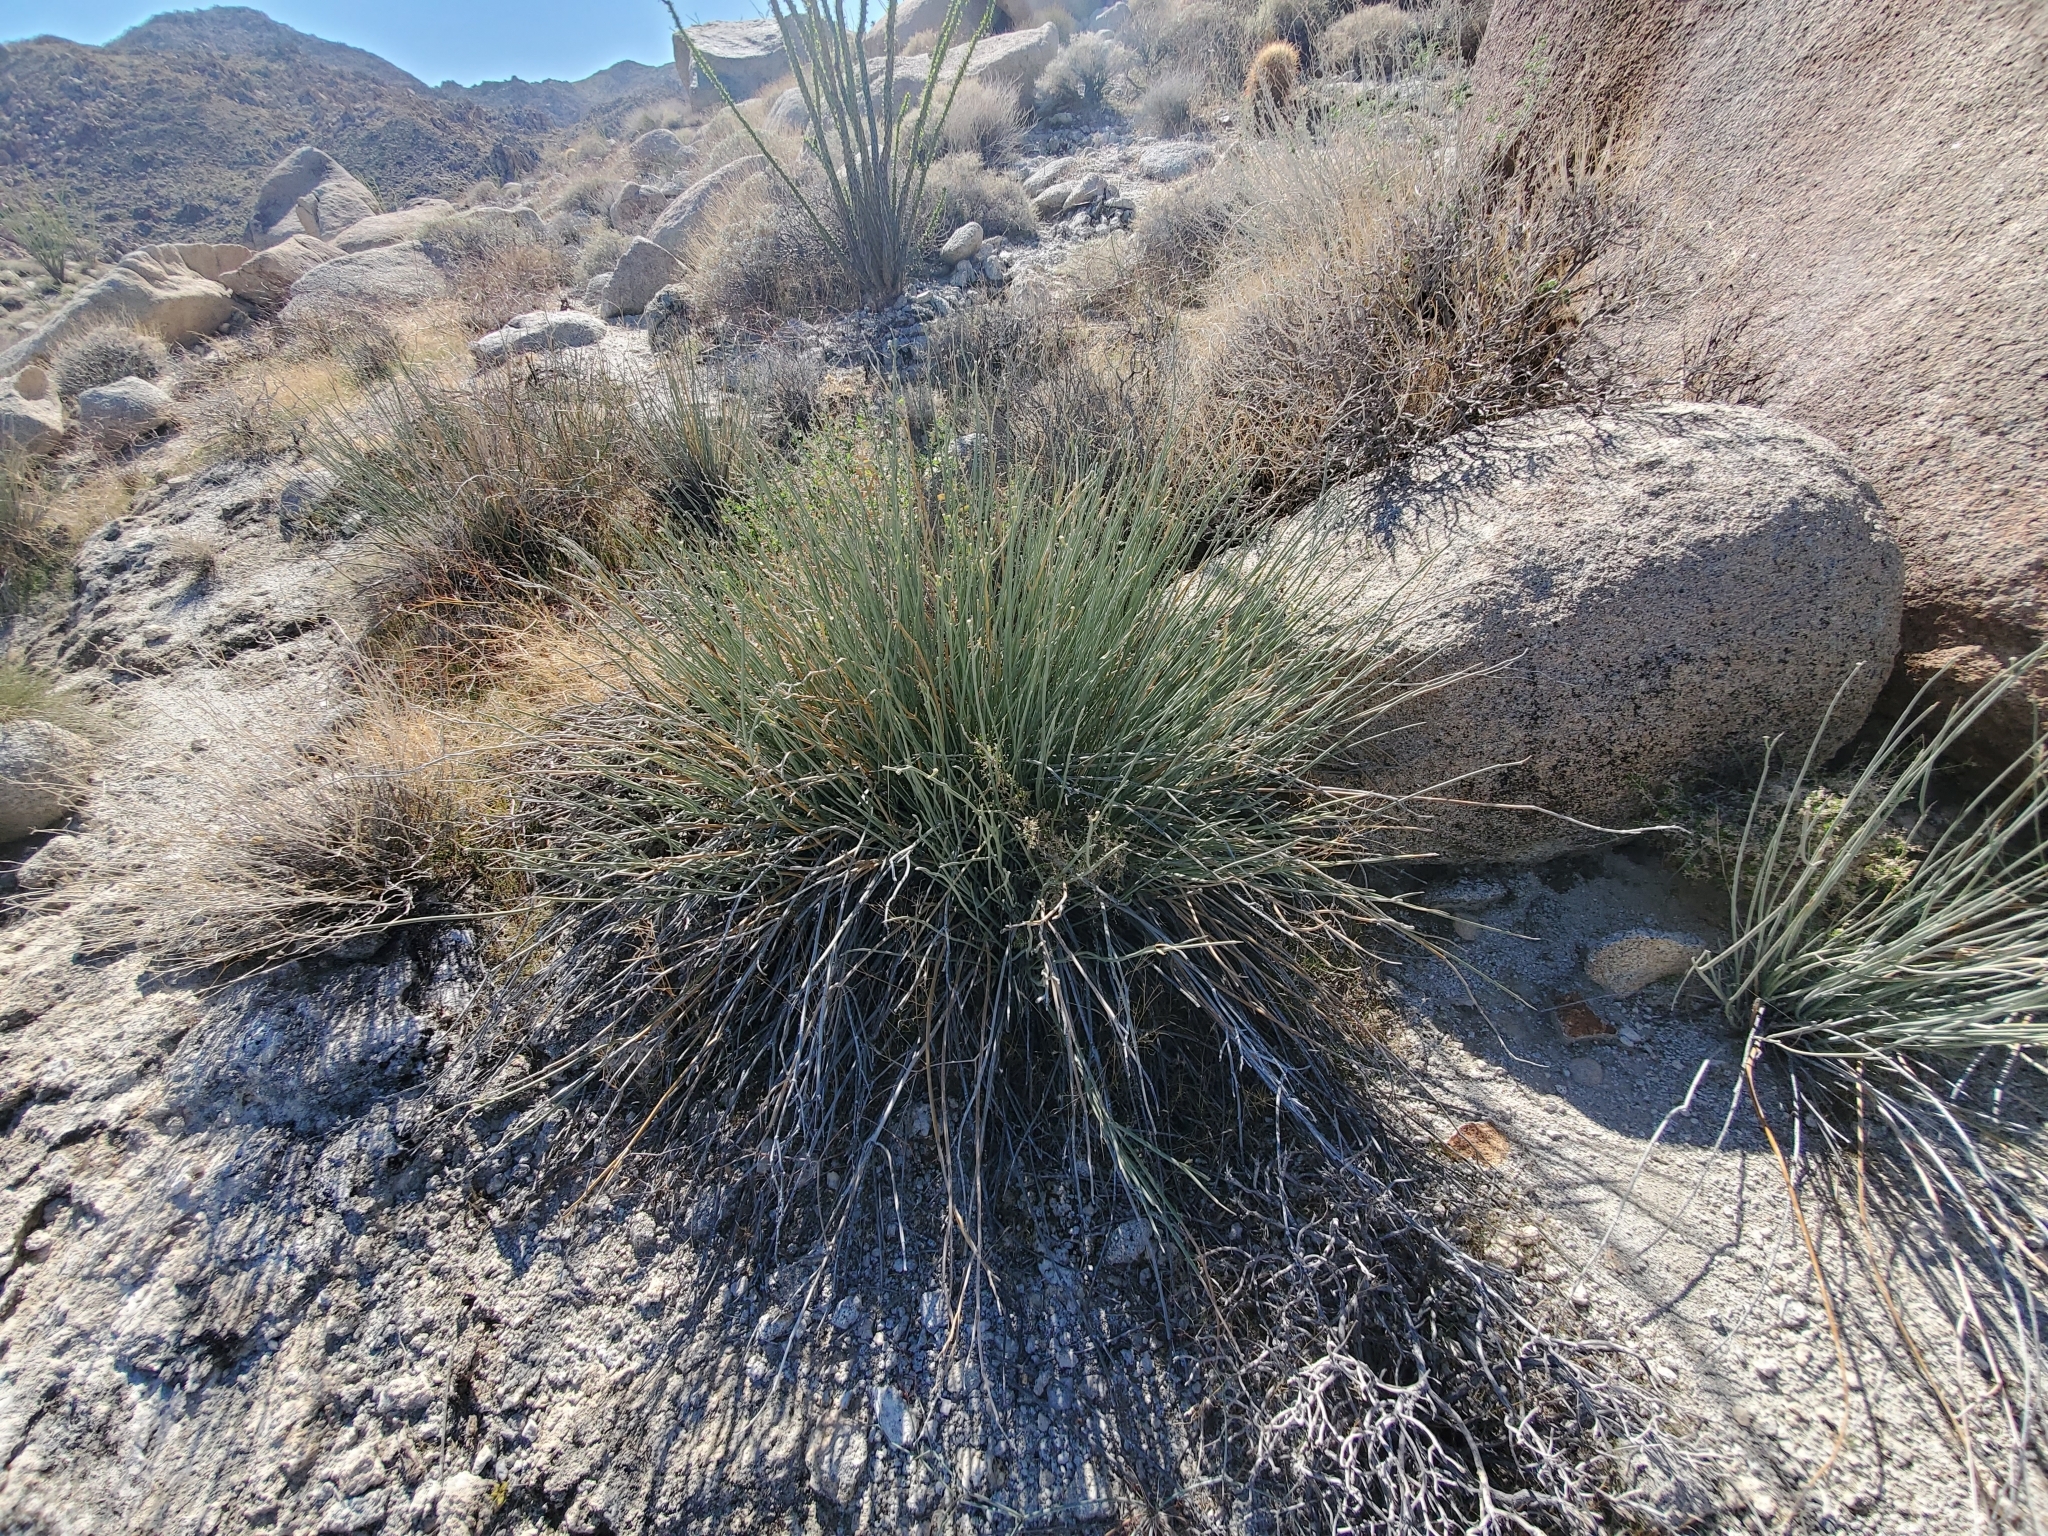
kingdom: Plantae
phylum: Tracheophyta
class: Magnoliopsida
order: Gentianales
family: Apocynaceae
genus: Asclepias
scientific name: Asclepias subulata
